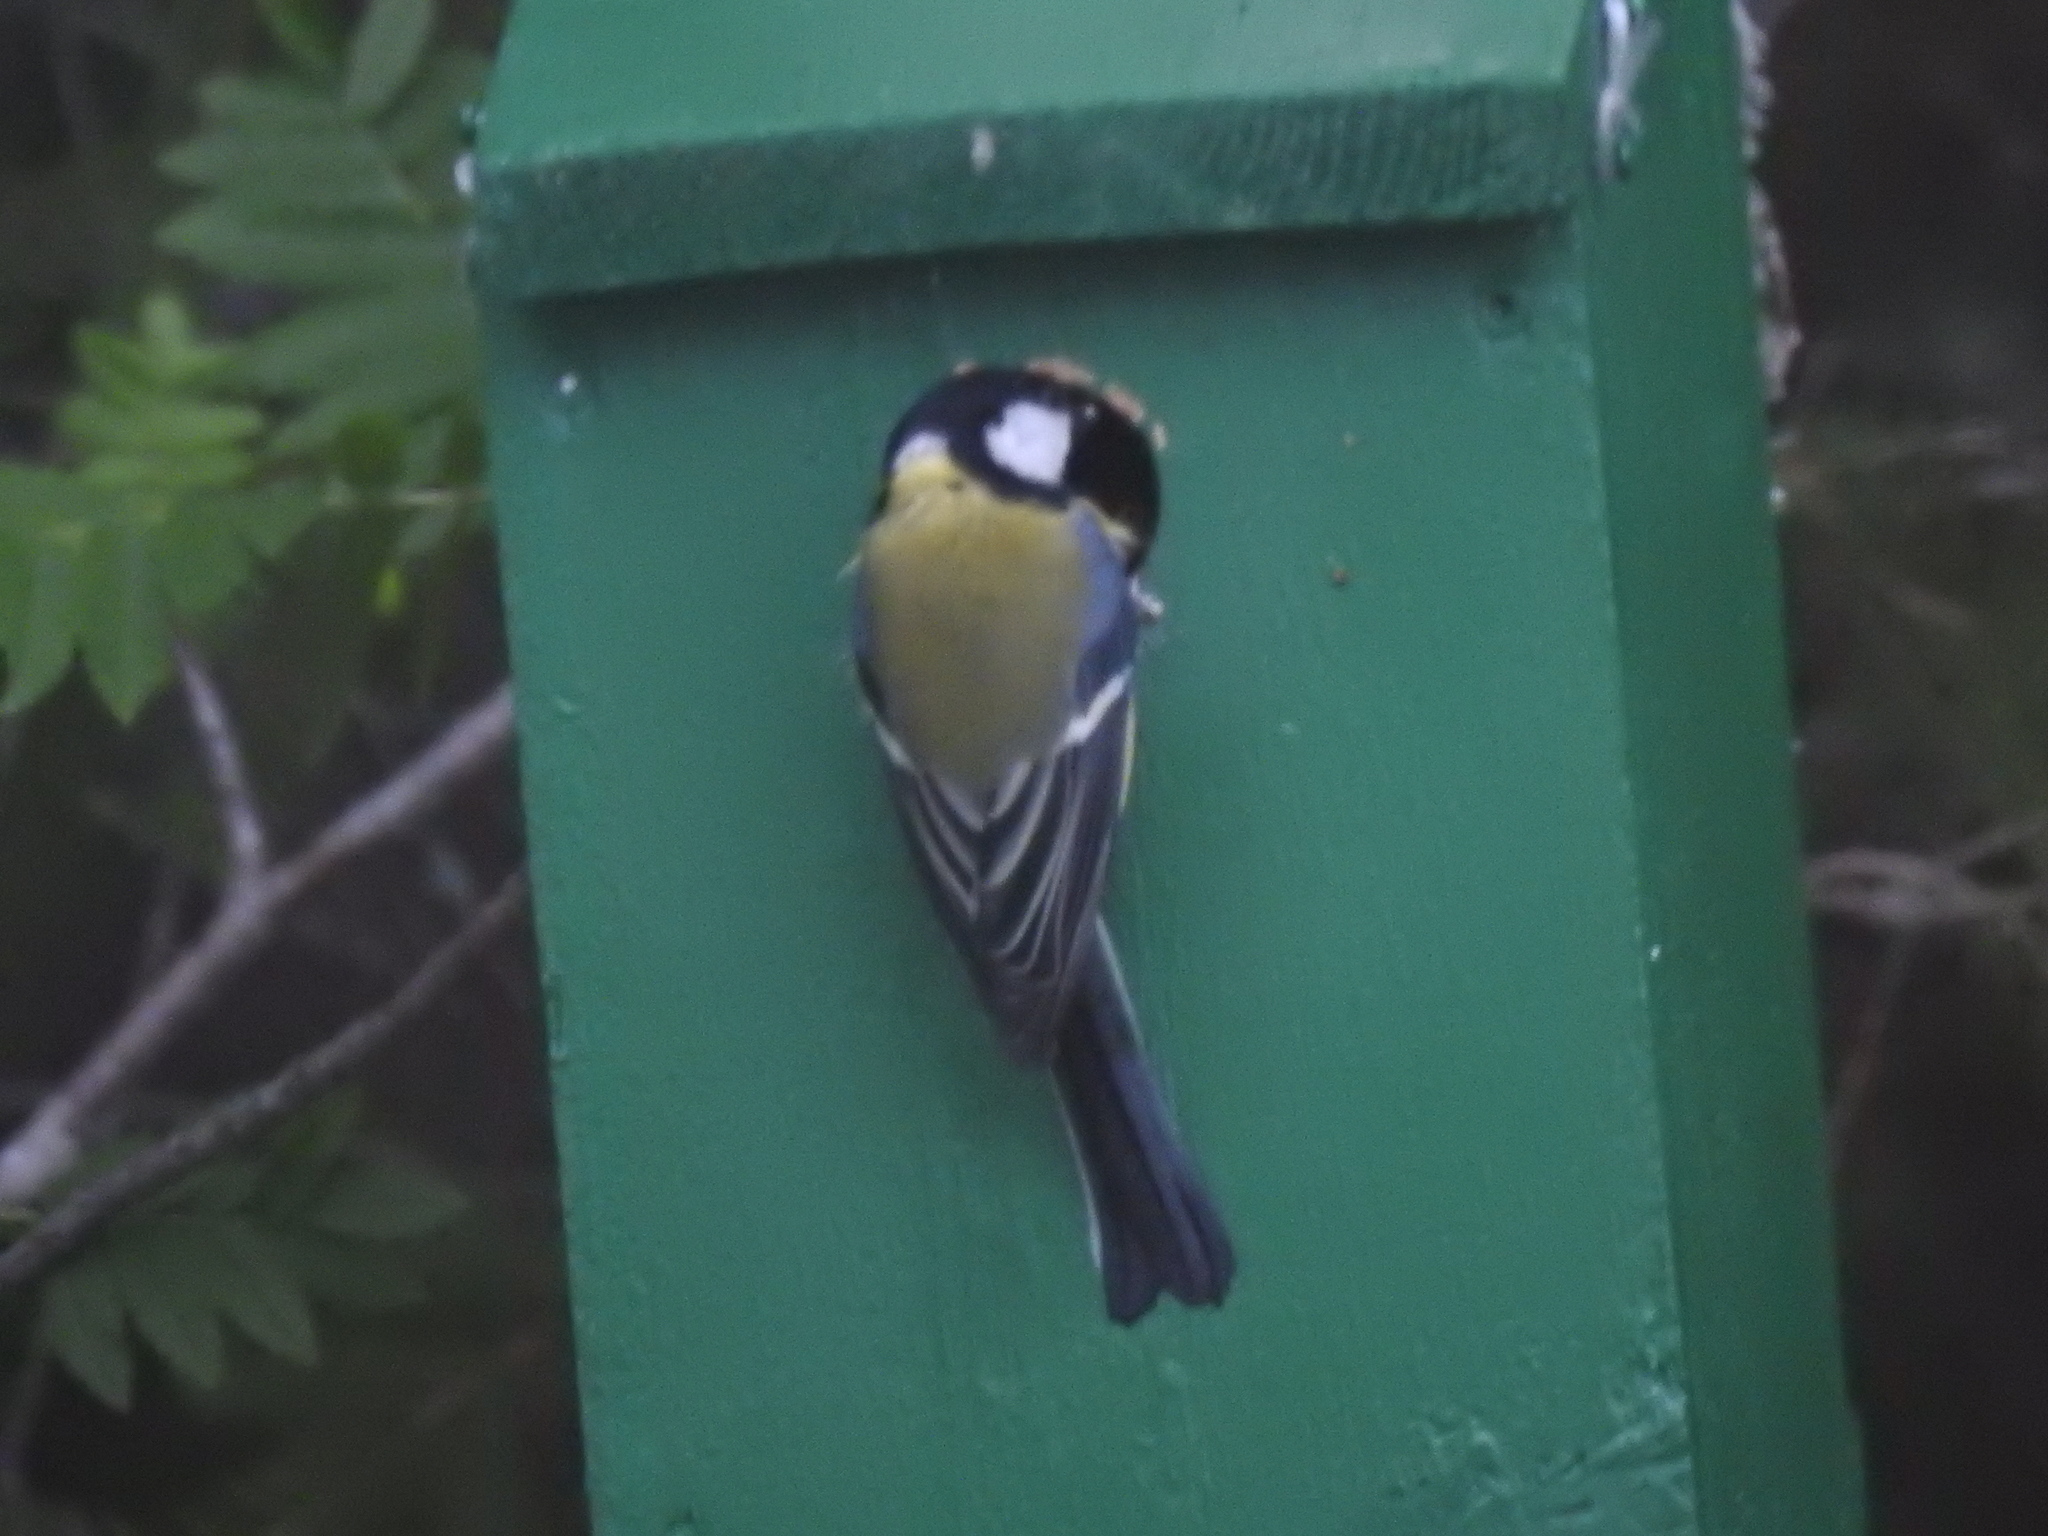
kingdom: Animalia
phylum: Chordata
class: Aves
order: Passeriformes
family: Paridae
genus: Parus
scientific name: Parus major
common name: Great tit
